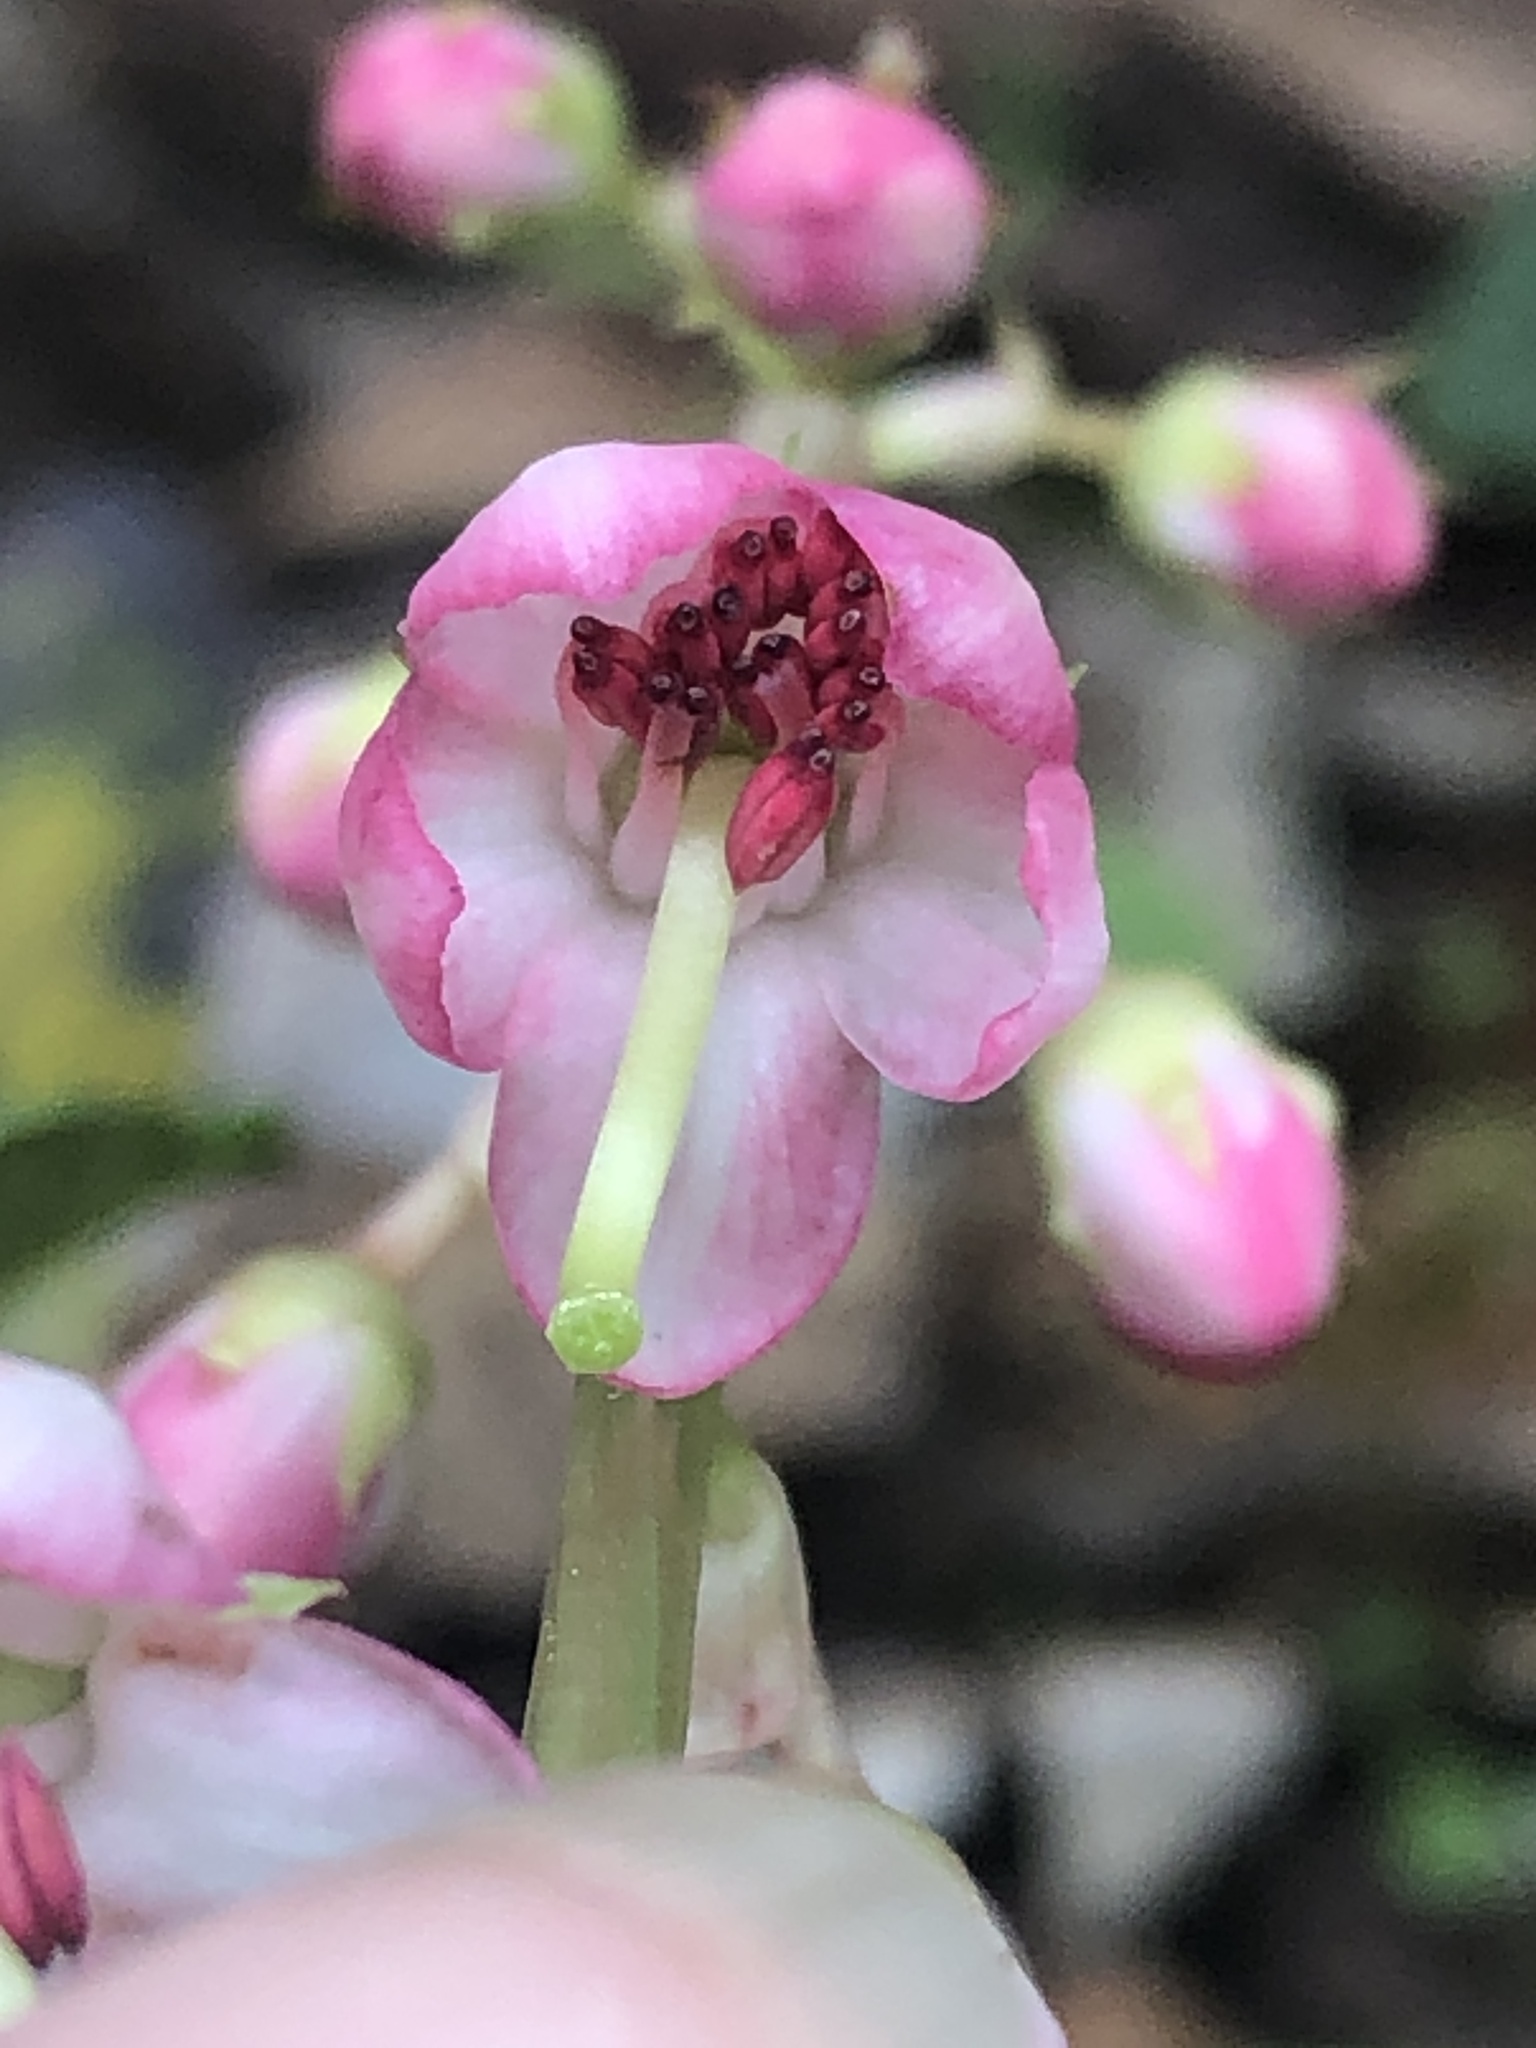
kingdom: Plantae
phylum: Tracheophyta
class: Magnoliopsida
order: Ericales
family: Ericaceae
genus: Pyrola
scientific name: Pyrola asarifolia
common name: Bog wintergreen
